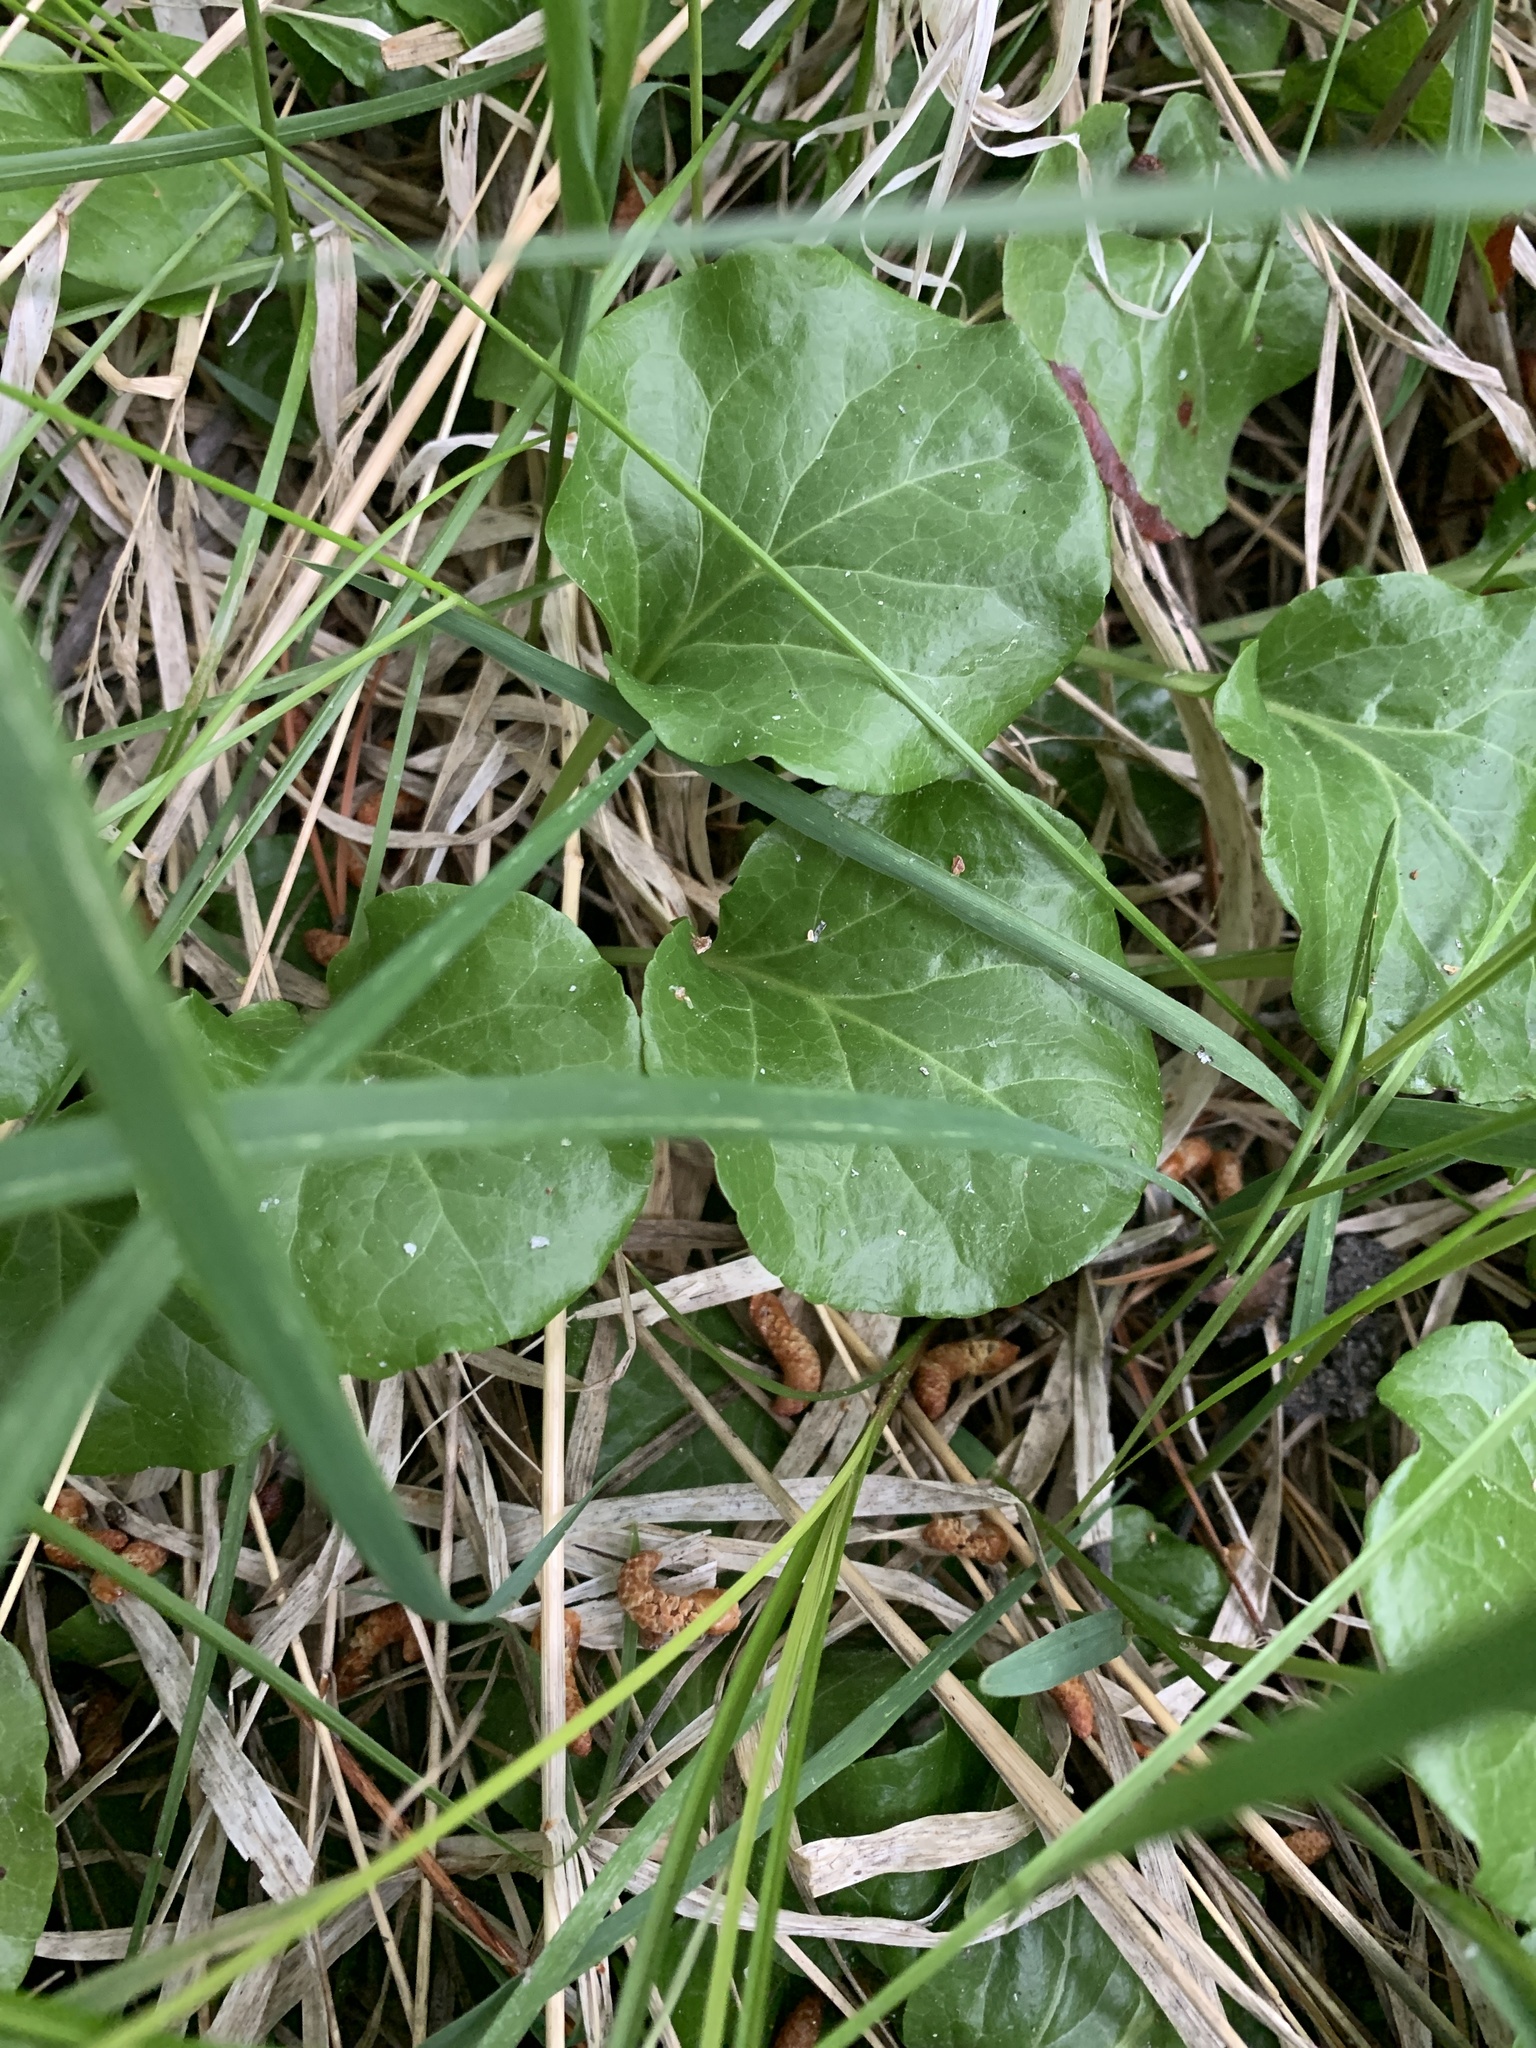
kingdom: Plantae
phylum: Tracheophyta
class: Magnoliopsida
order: Ericales
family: Ericaceae
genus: Pyrola
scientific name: Pyrola asarifolia
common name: Bog wintergreen
